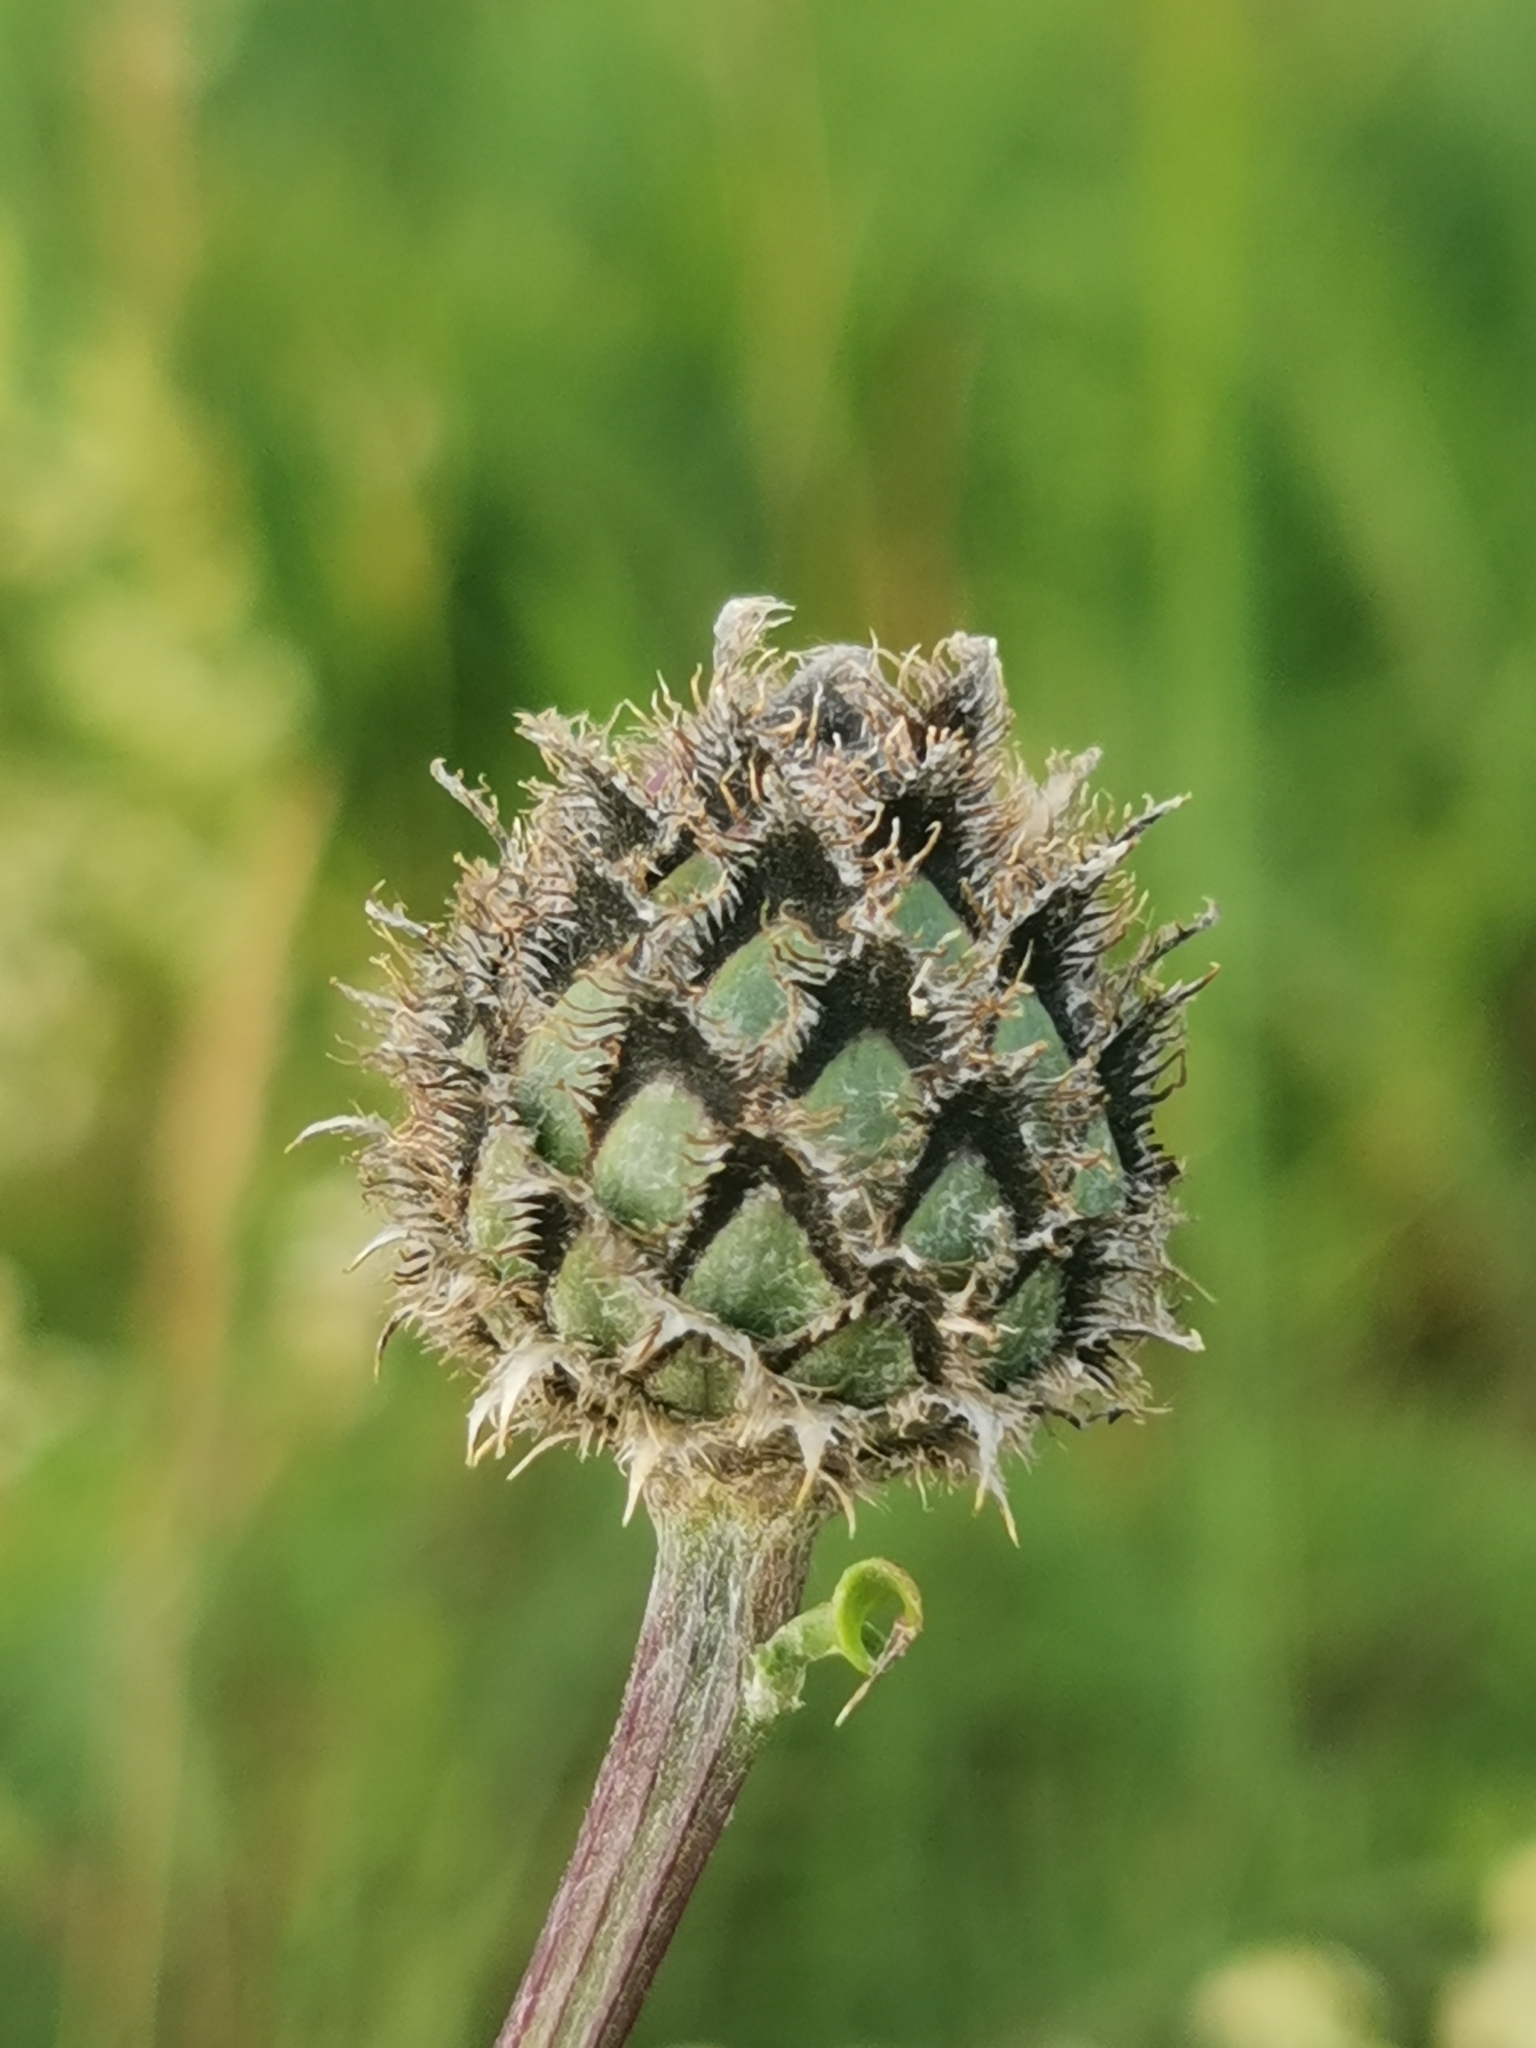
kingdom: Plantae
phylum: Tracheophyta
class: Magnoliopsida
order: Asterales
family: Asteraceae
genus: Centaurea
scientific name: Centaurea scabiosa
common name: Greater knapweed
